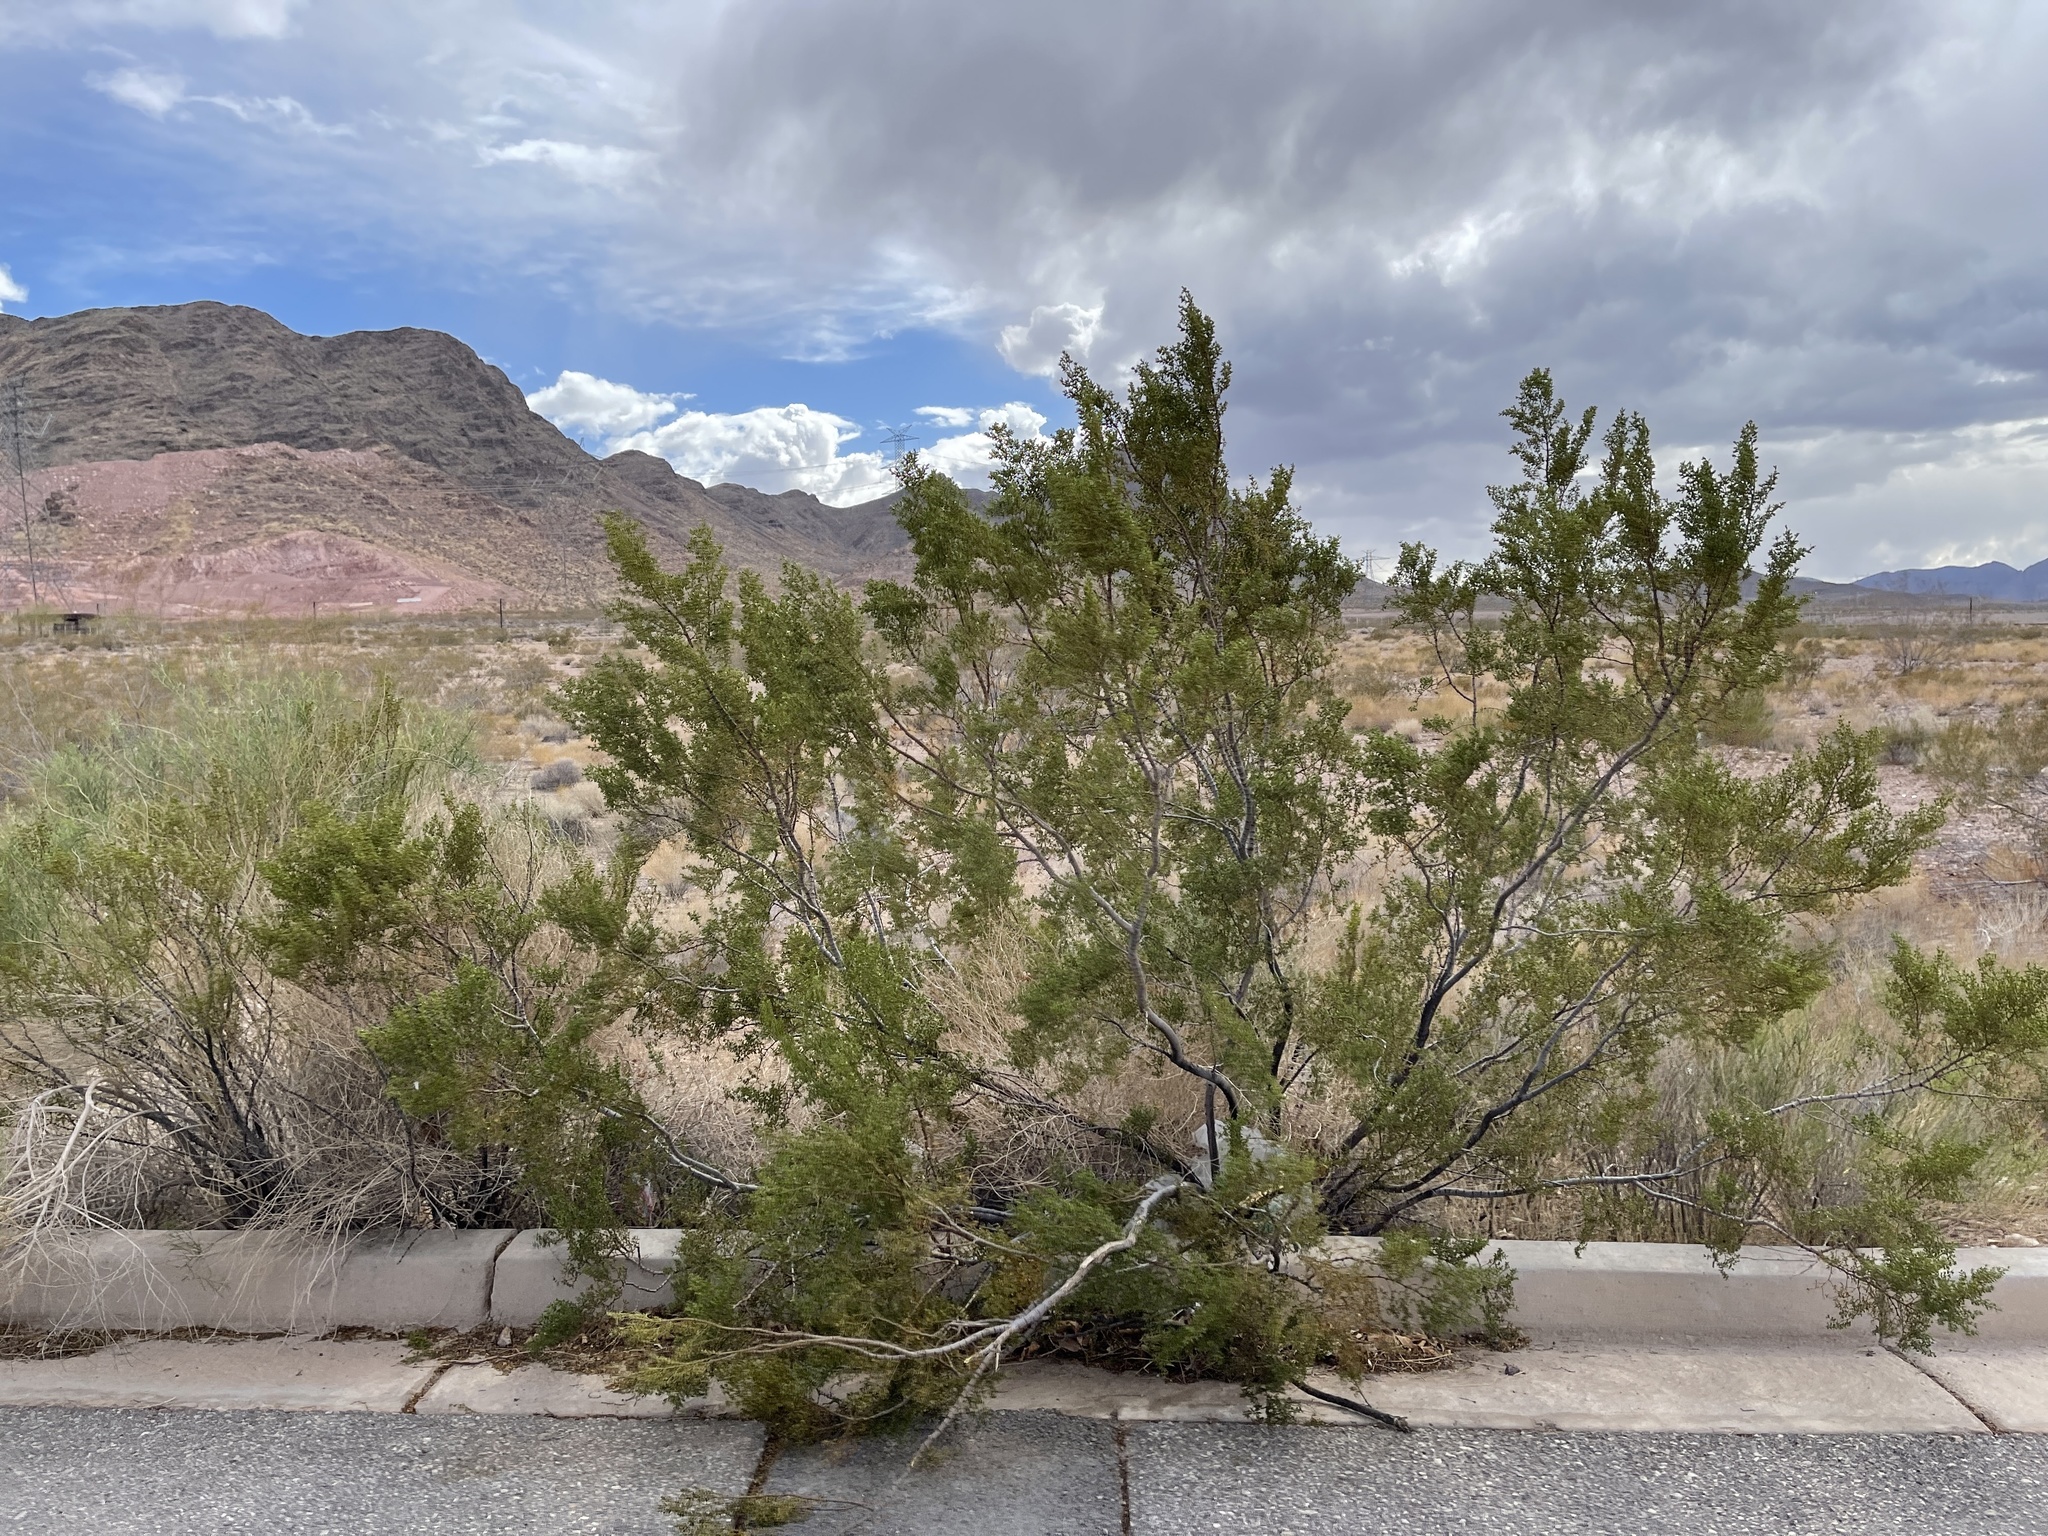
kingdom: Plantae
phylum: Tracheophyta
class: Magnoliopsida
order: Zygophyllales
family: Zygophyllaceae
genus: Larrea
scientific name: Larrea tridentata
